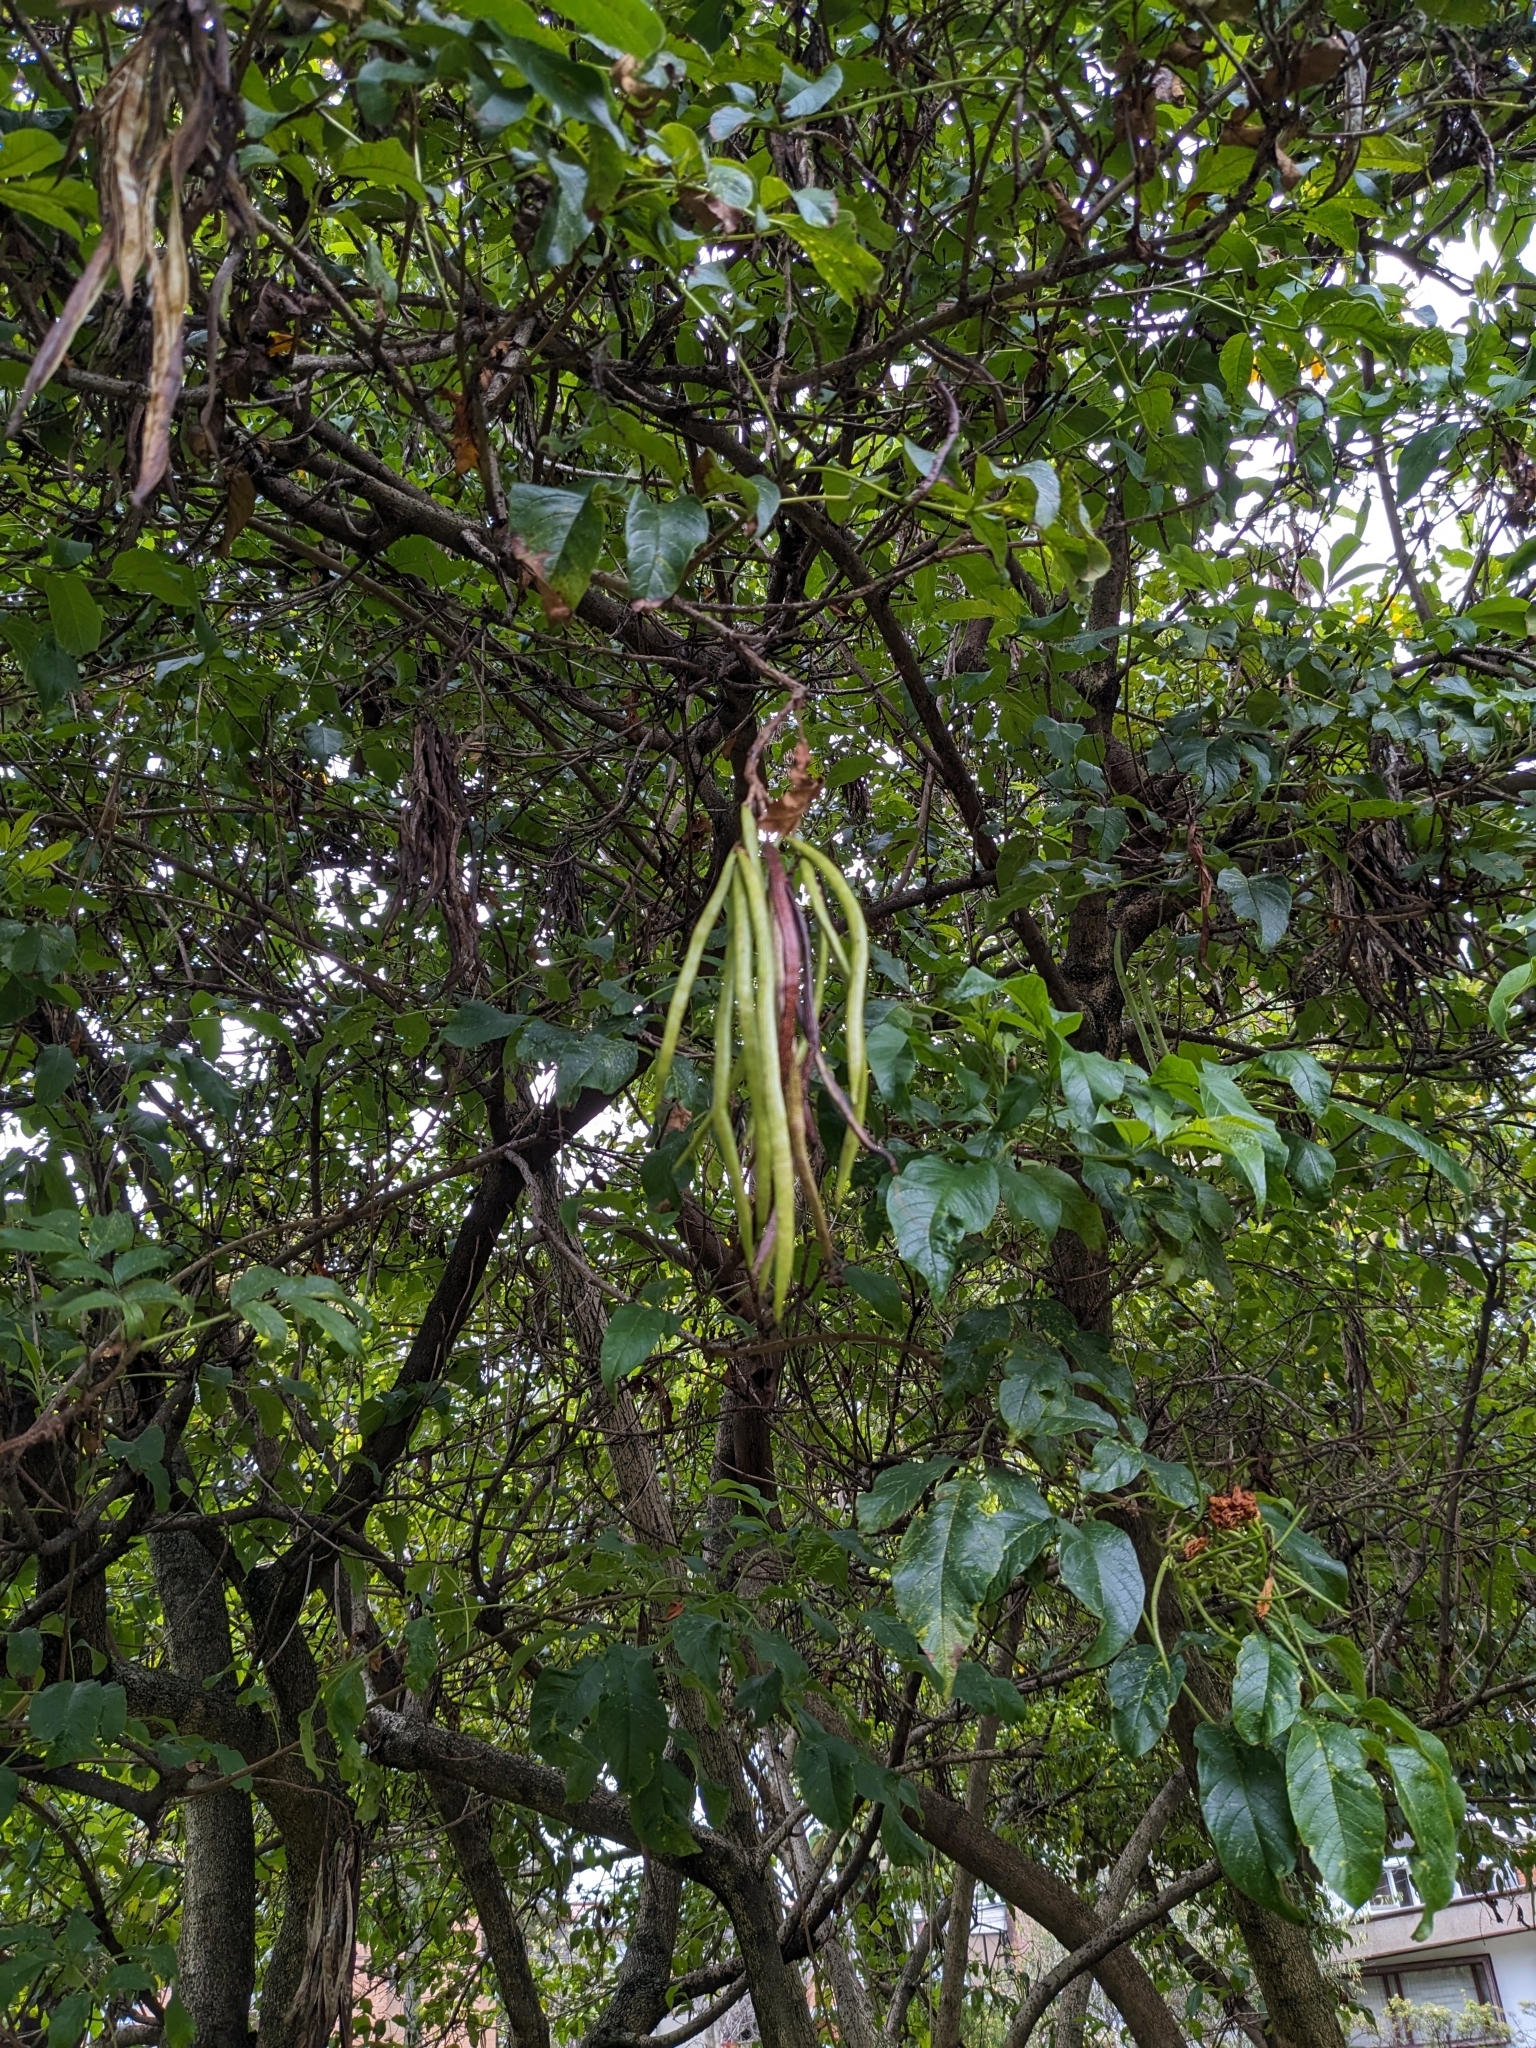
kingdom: Plantae
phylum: Tracheophyta
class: Magnoliopsida
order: Lamiales
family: Bignoniaceae
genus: Tecoma
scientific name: Tecoma stans
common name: Yellow trumpetbush
